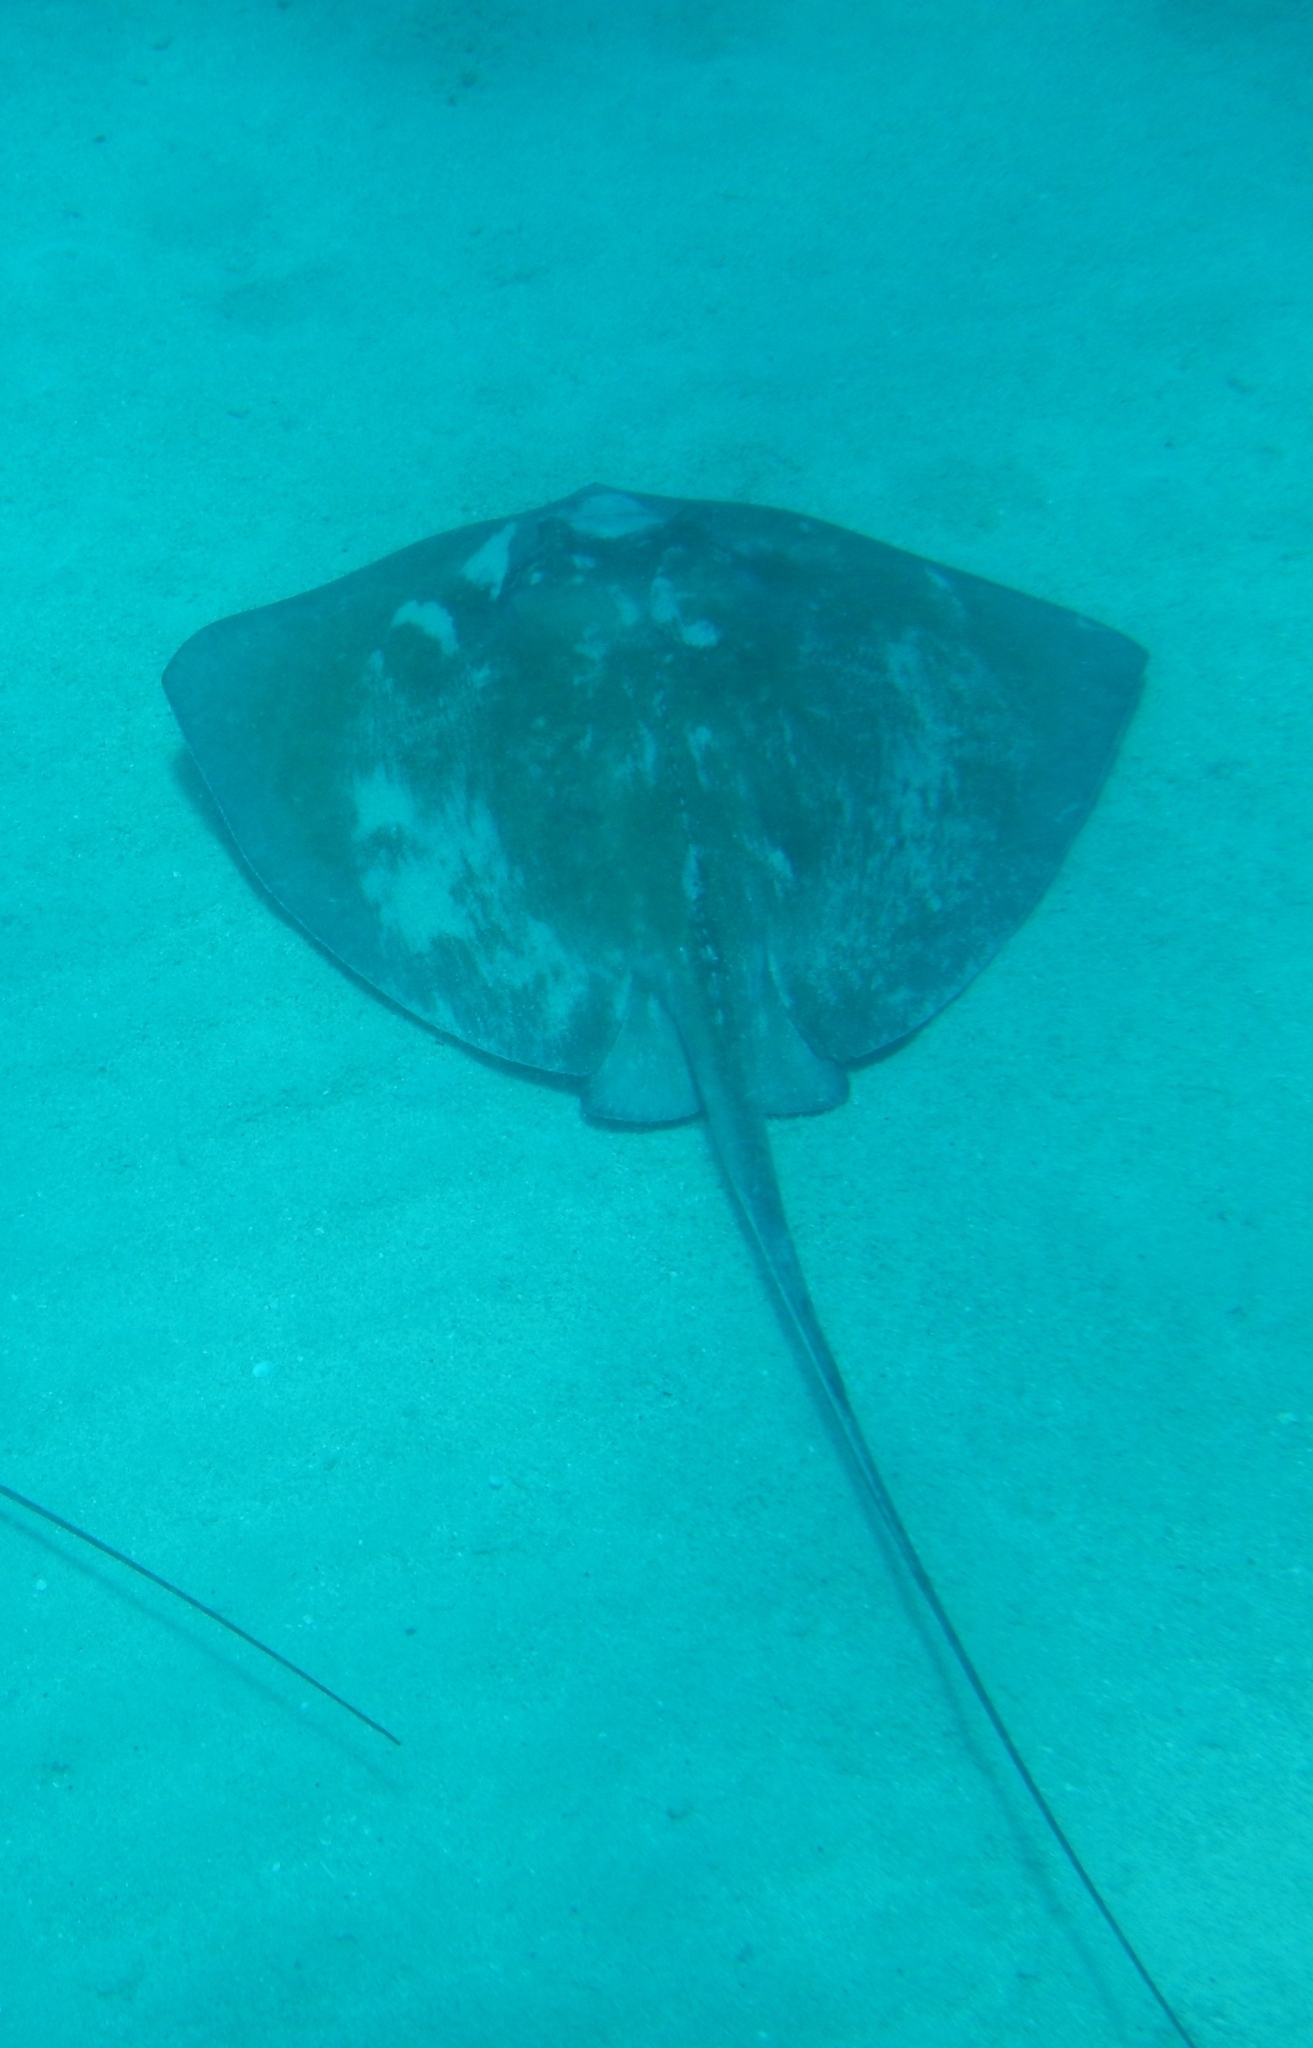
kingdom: Animalia
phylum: Chordata
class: Elasmobranchii
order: Myliobatiformes
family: Dasyatidae
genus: Hypanus
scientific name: Hypanus americanus
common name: Southern stingray
